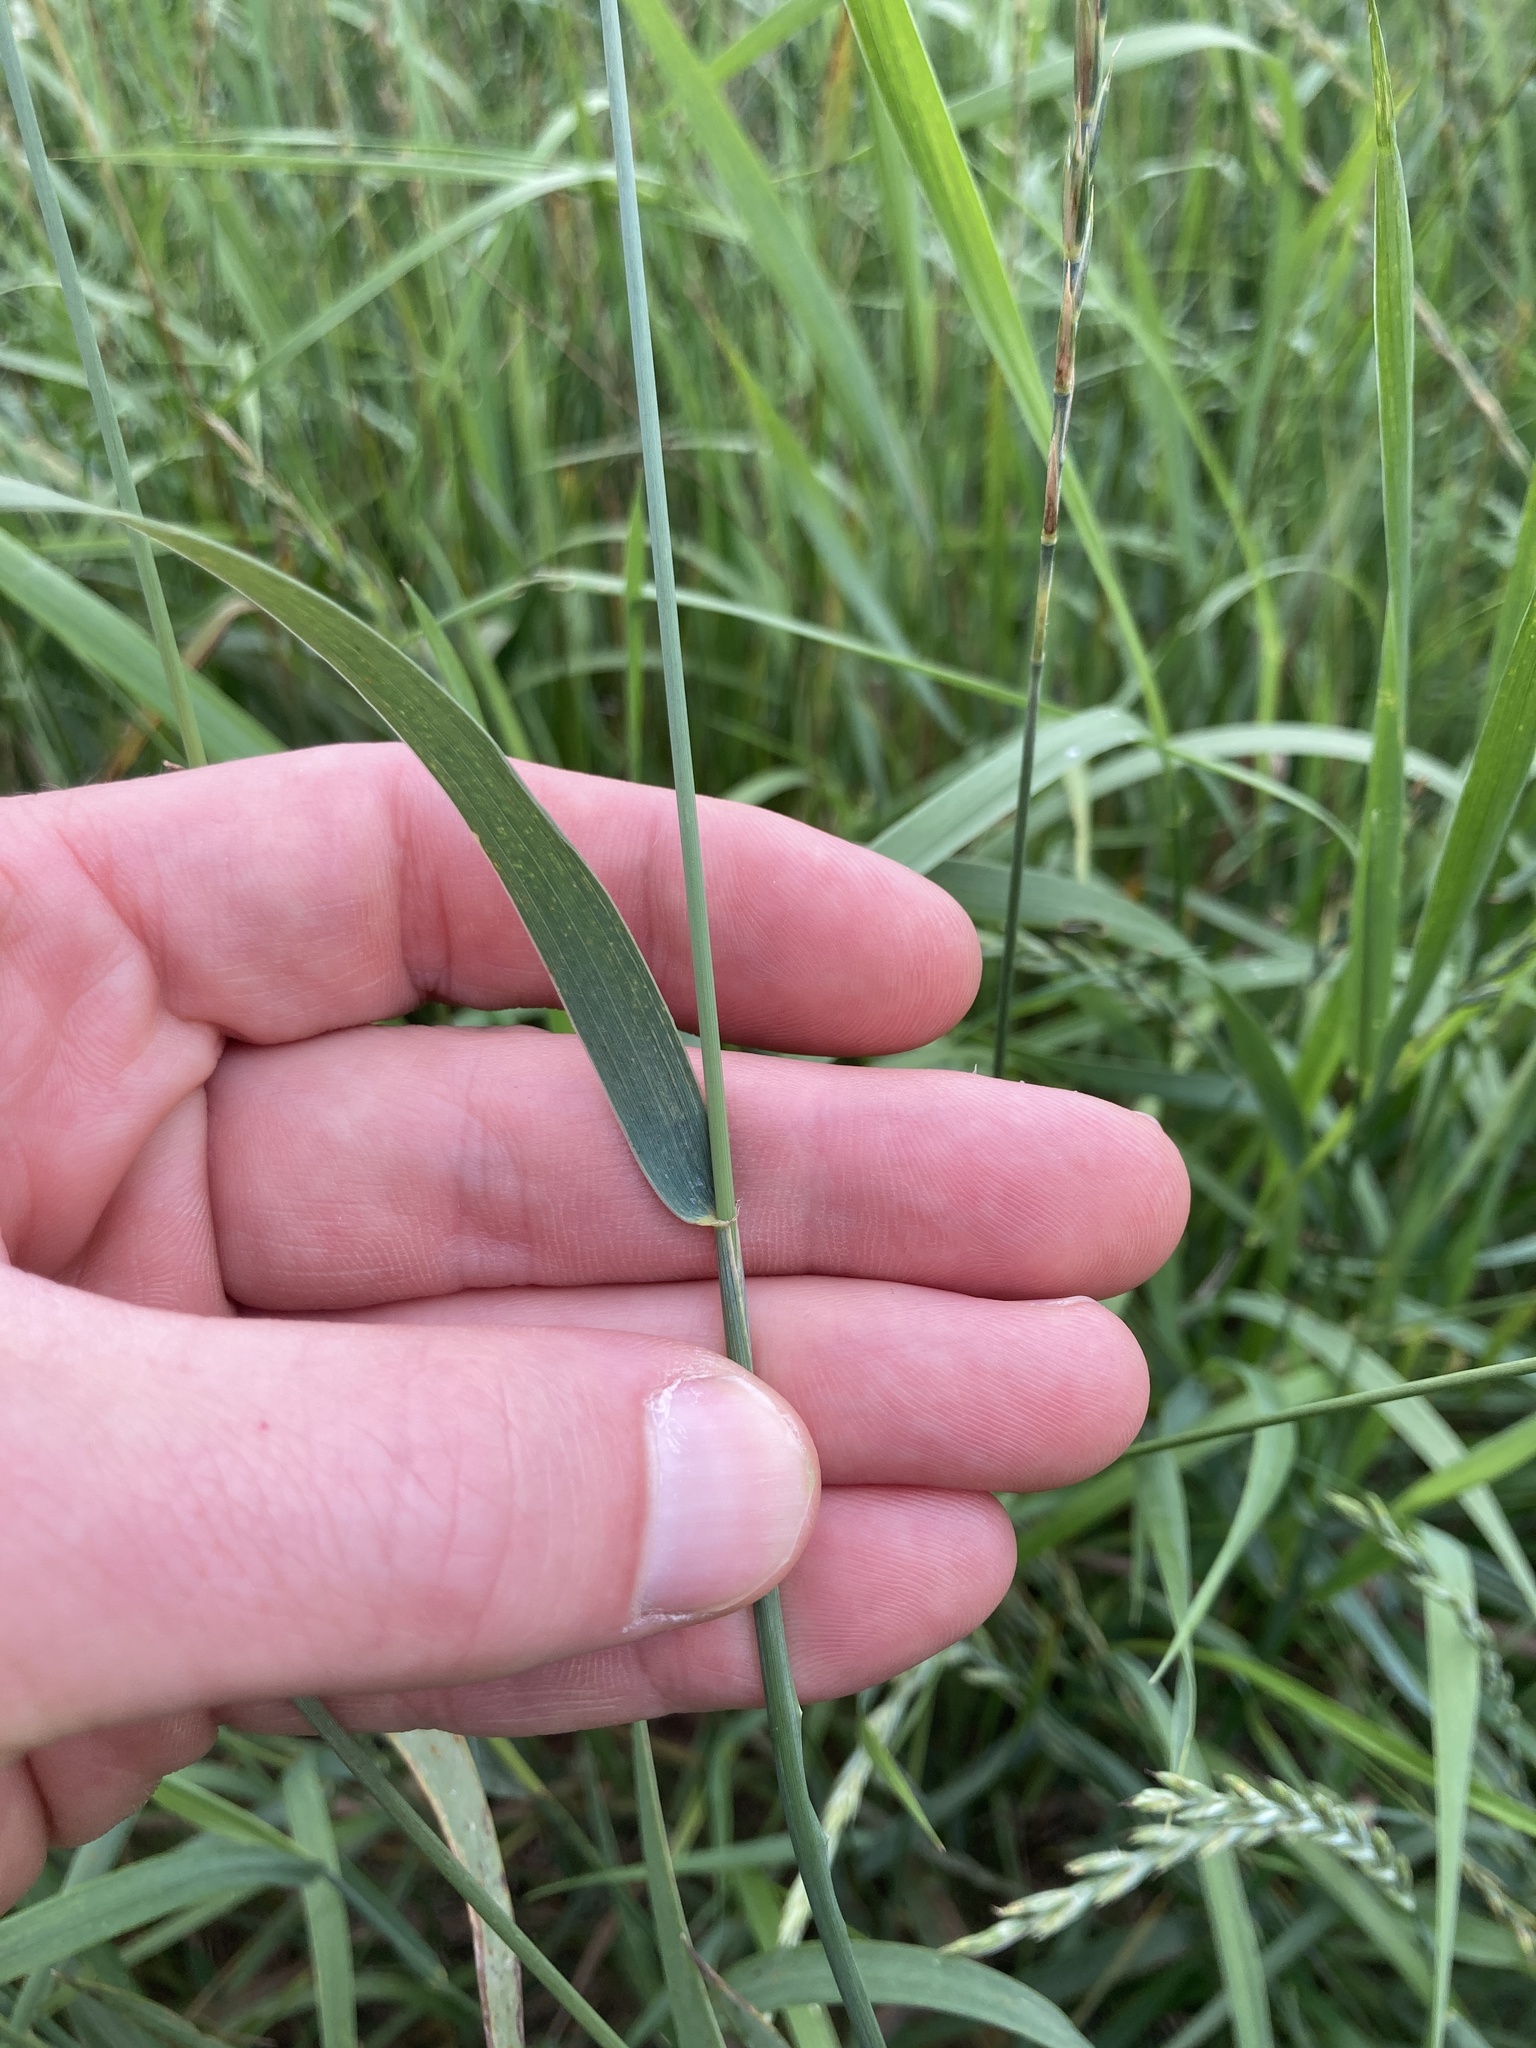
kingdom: Plantae
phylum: Tracheophyta
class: Liliopsida
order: Poales
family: Poaceae
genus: Elymus
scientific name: Elymus repens
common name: Quackgrass
